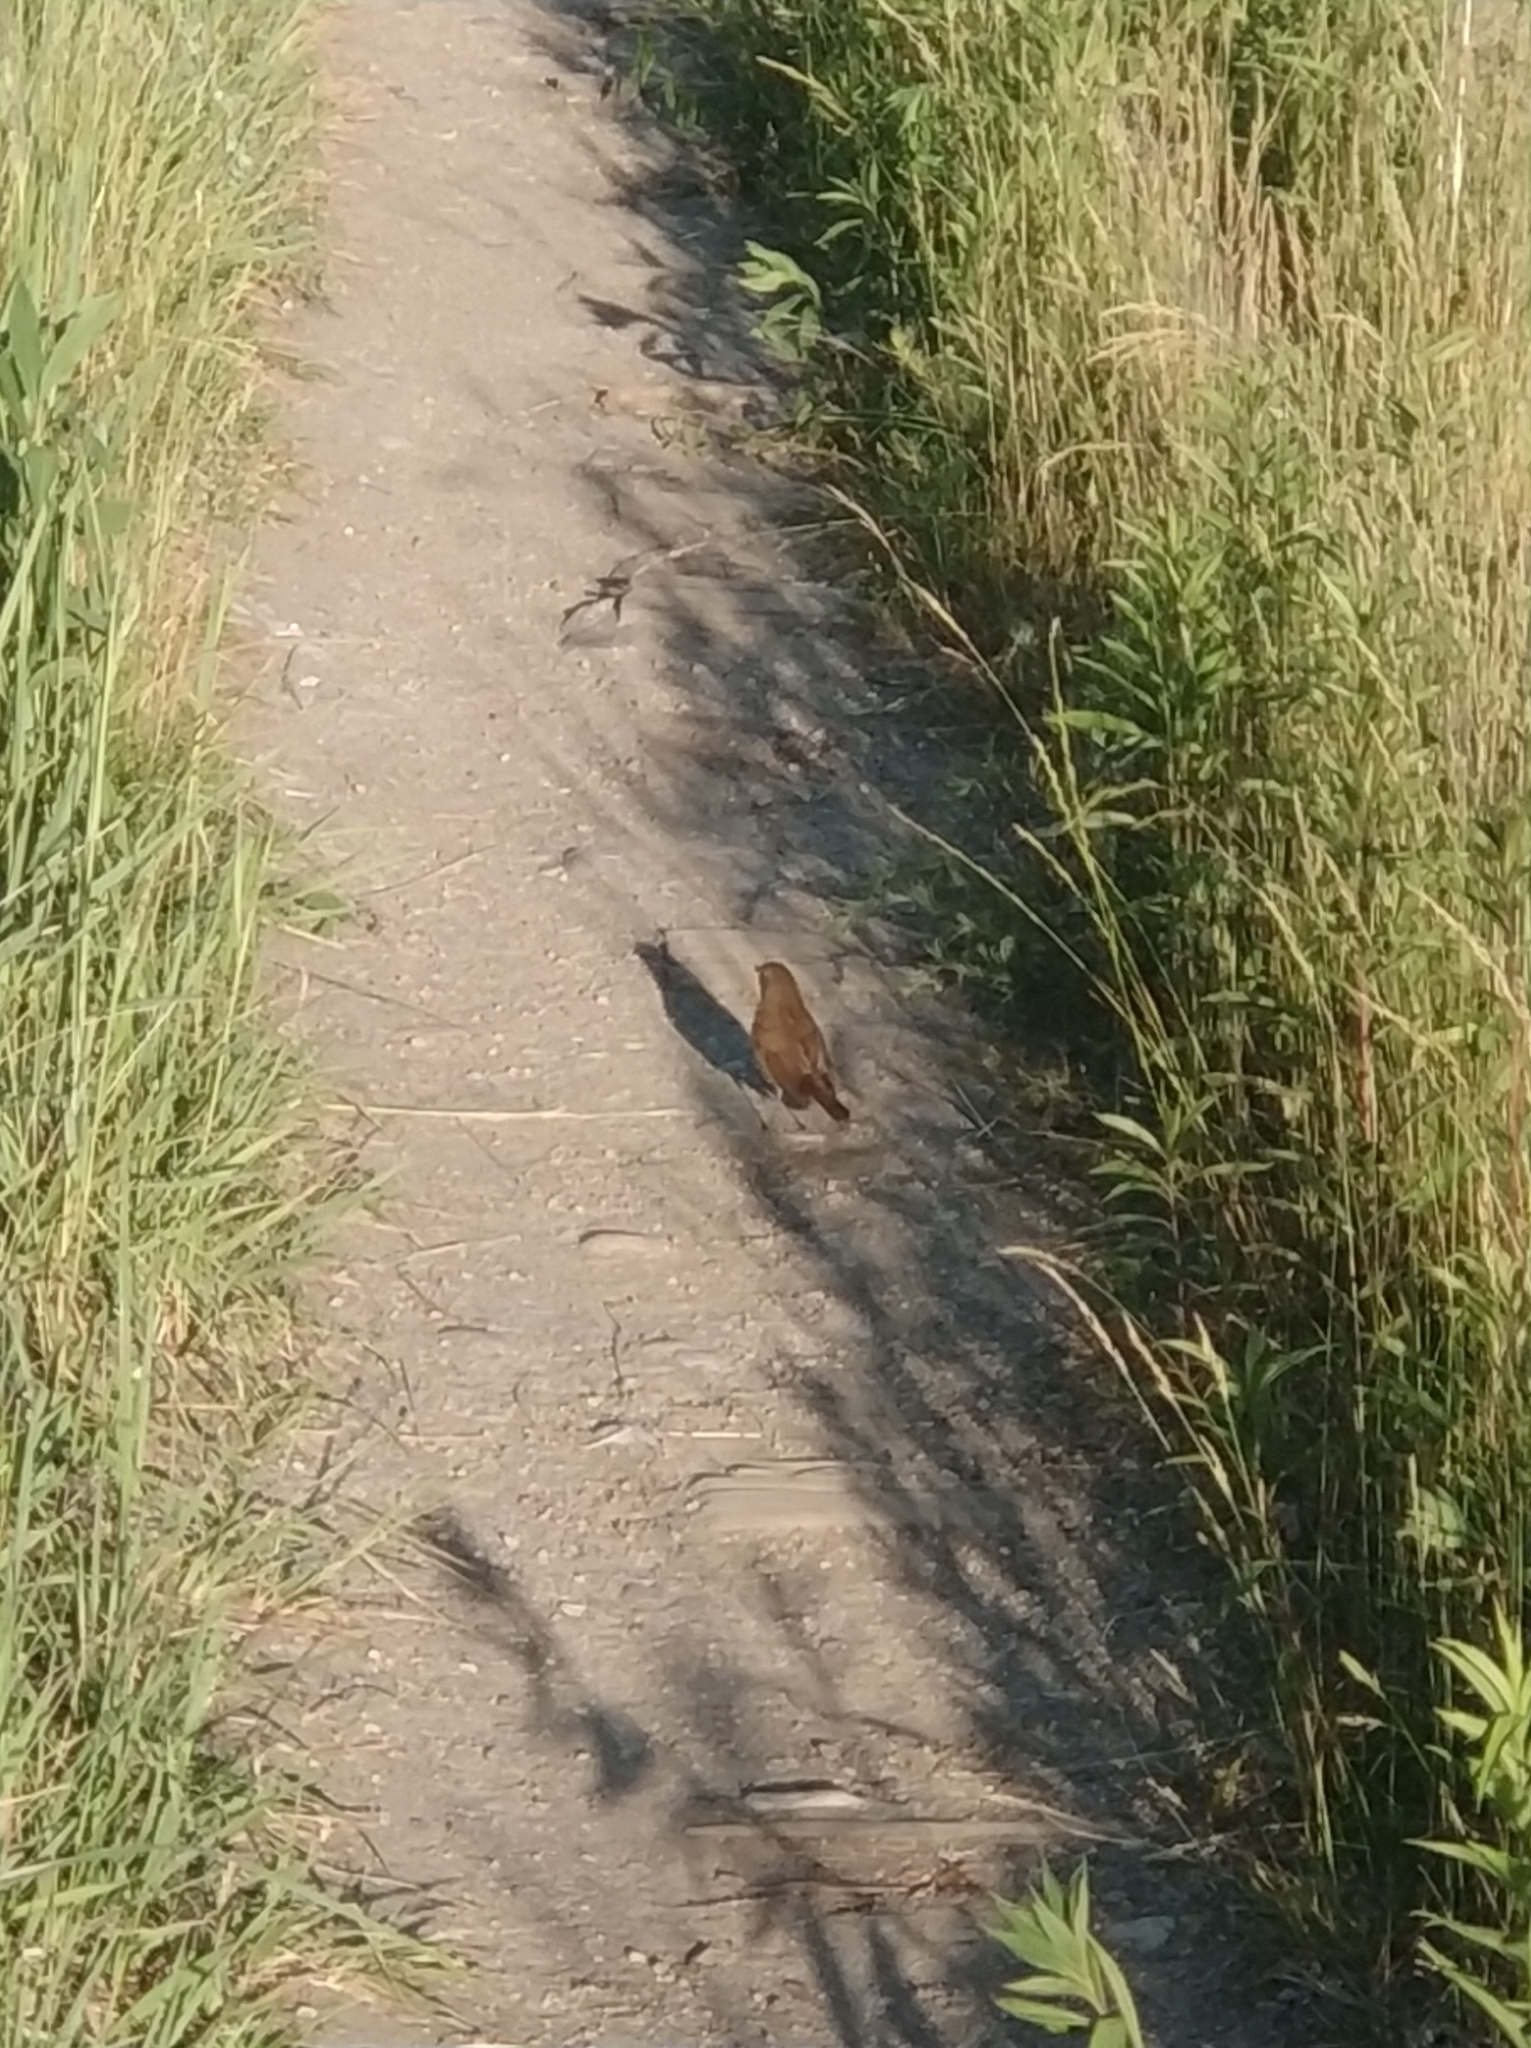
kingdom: Animalia
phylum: Chordata
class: Aves
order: Passeriformes
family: Muscicapidae
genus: Luscinia
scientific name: Luscinia luscinia
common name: Thrush nightingale
